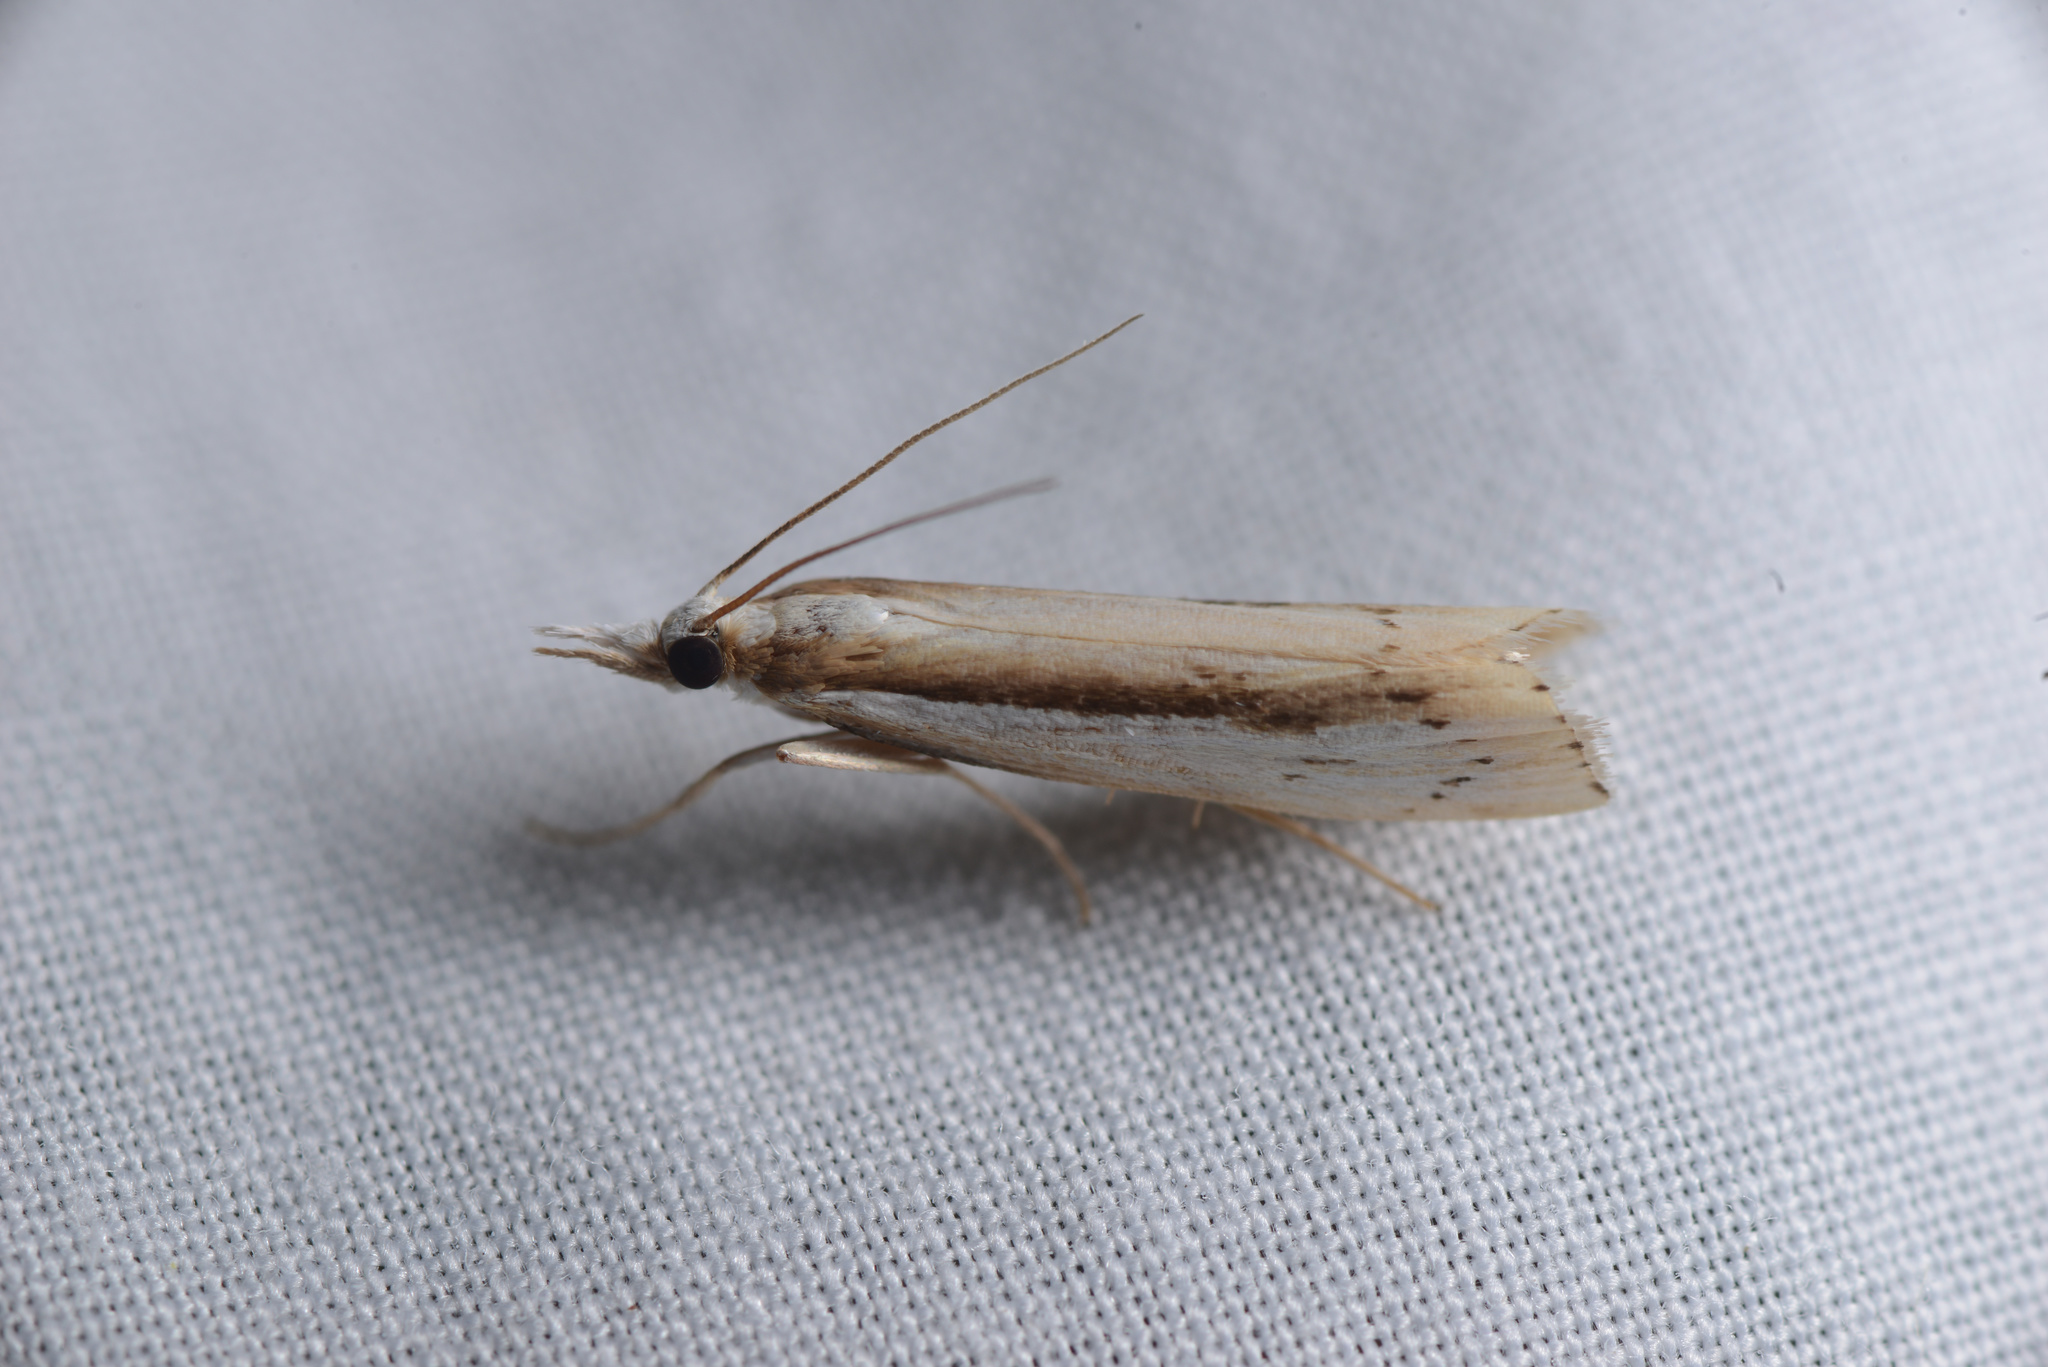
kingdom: Animalia
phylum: Arthropoda
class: Insecta
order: Lepidoptera
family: Crambidae
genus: Orocrambus
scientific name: Orocrambus ramosellus
